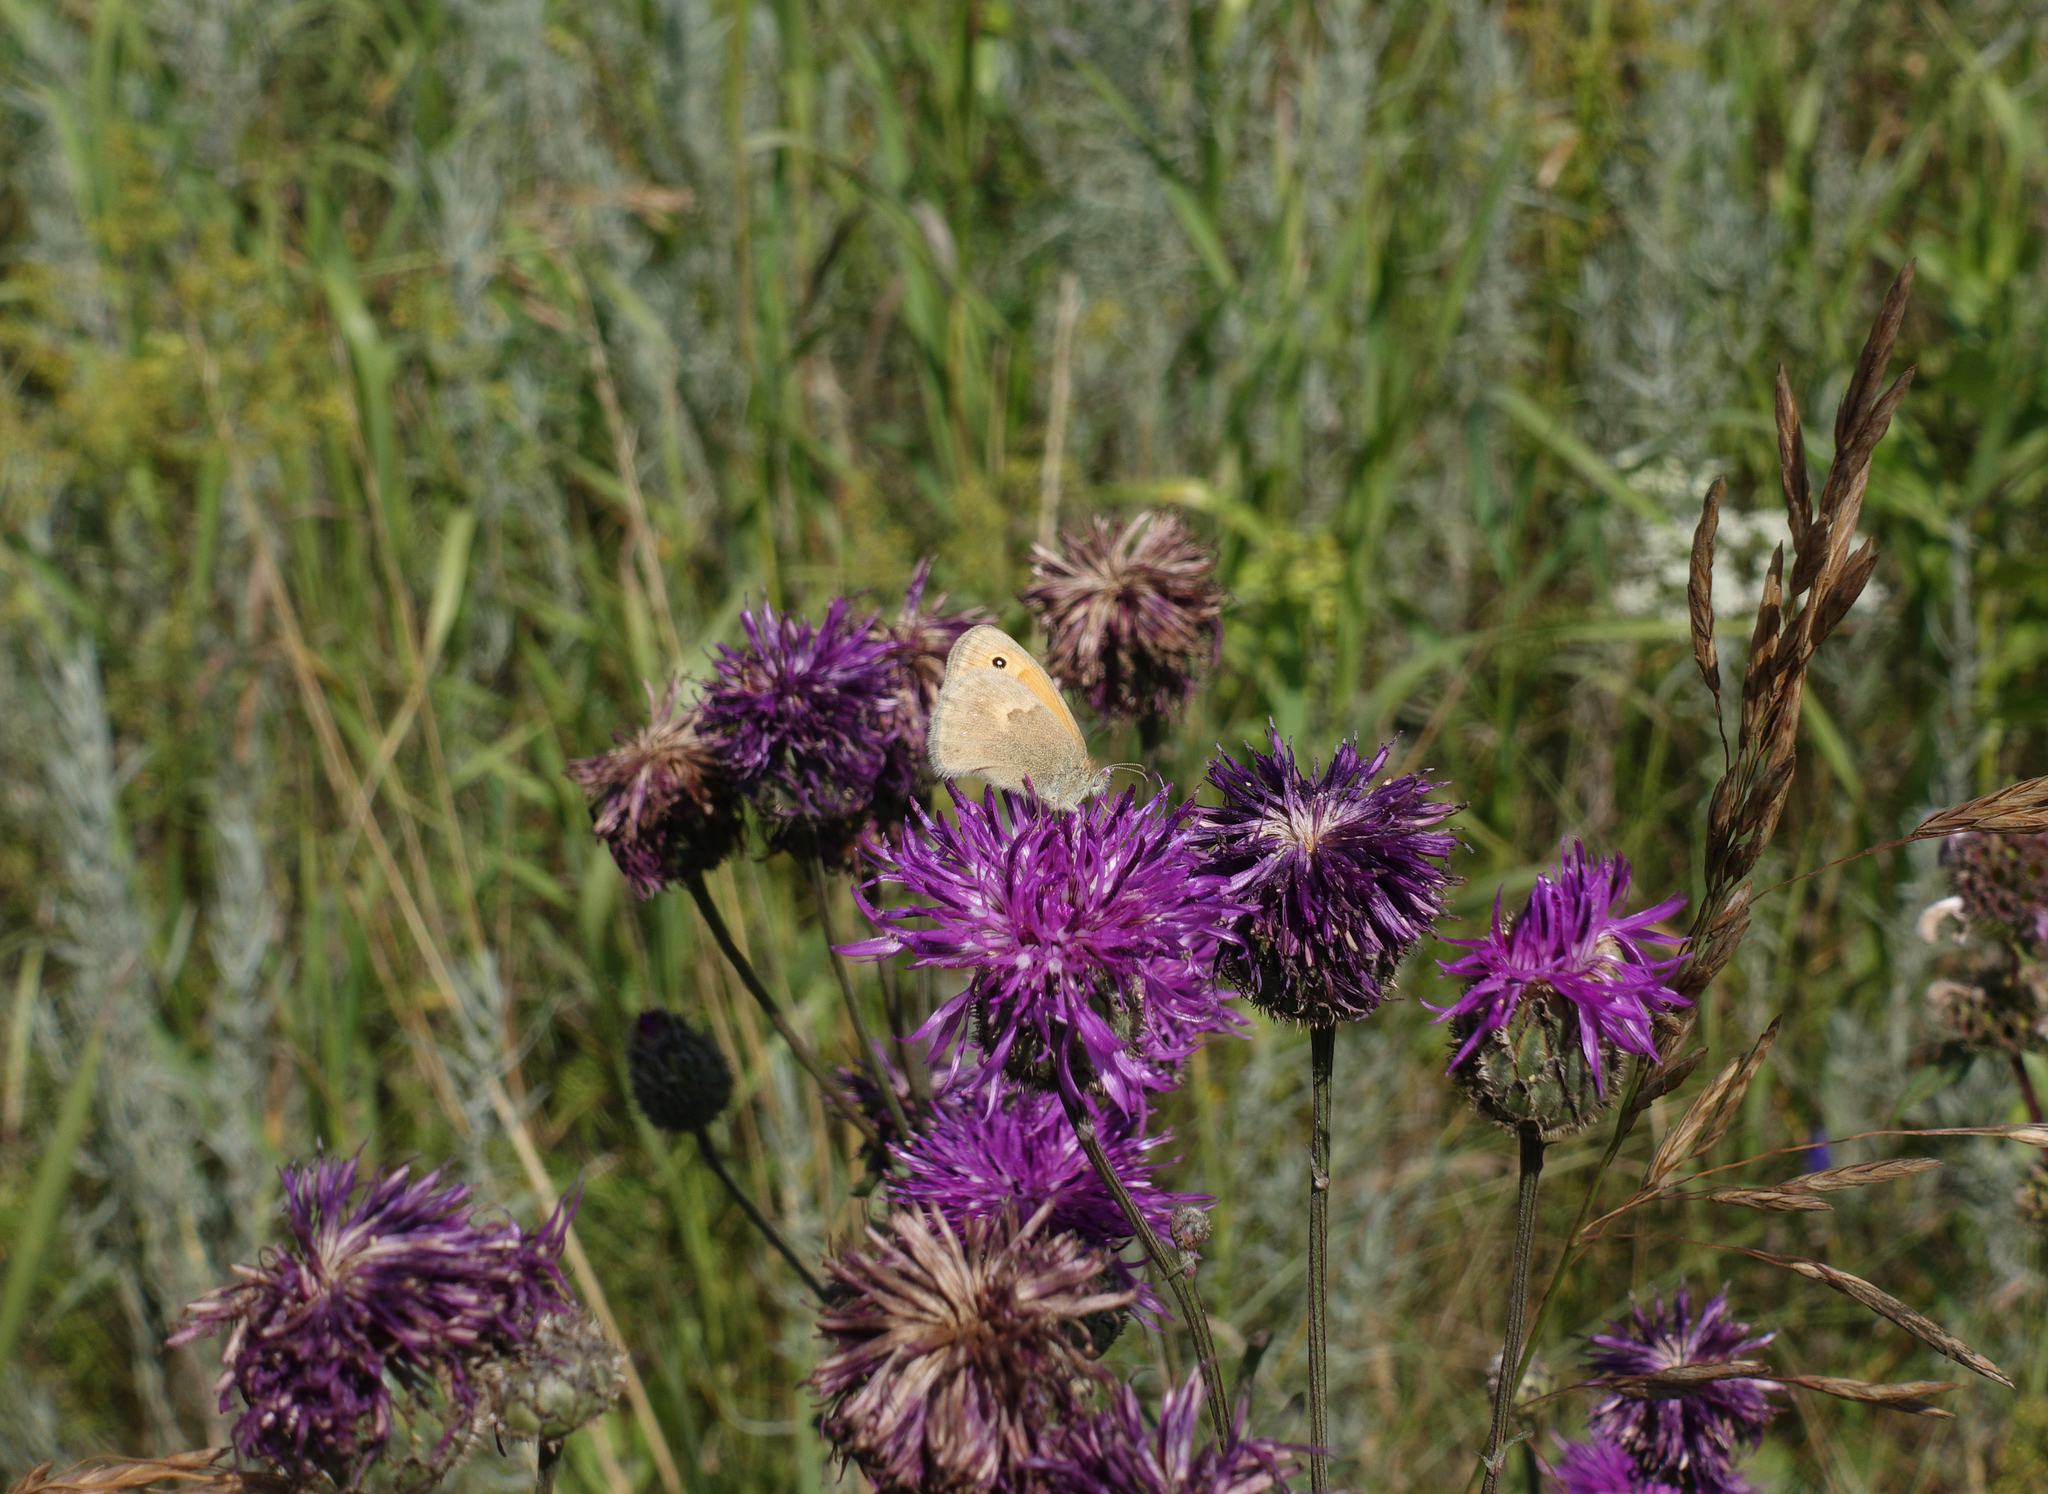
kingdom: Plantae
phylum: Tracheophyta
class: Magnoliopsida
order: Asterales
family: Asteraceae
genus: Centaurea
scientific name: Centaurea scabiosa
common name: Greater knapweed
